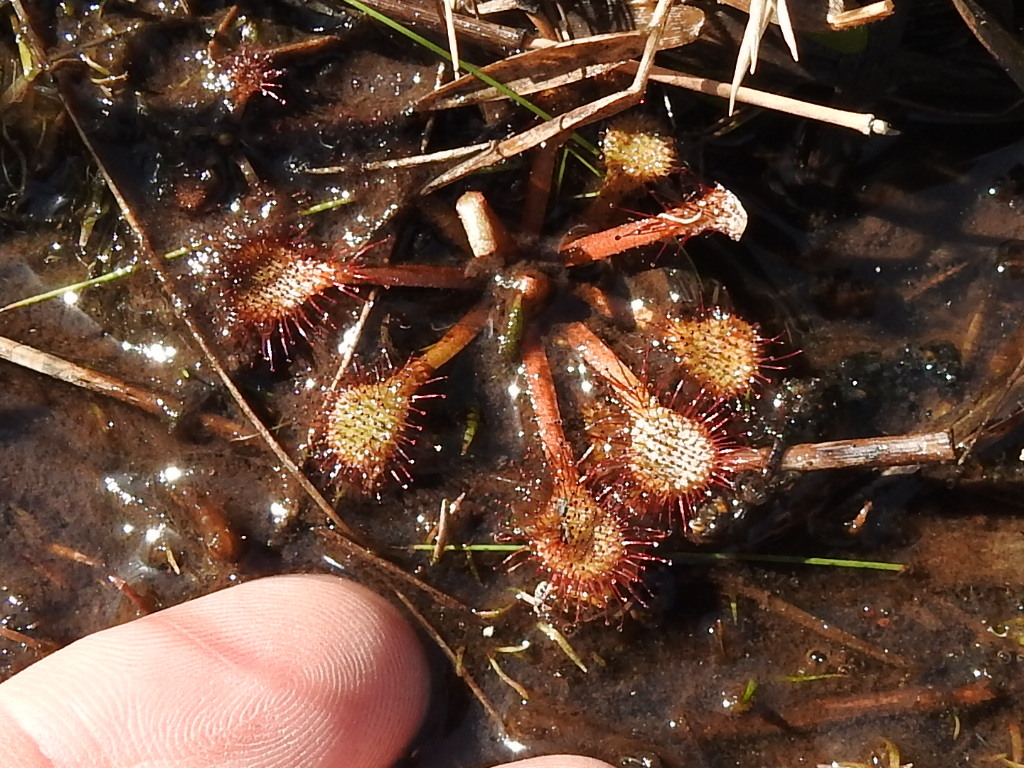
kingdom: Plantae
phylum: Tracheophyta
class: Magnoliopsida
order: Caryophyllales
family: Droseraceae
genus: Drosera
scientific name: Drosera capillaris
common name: Pink sundew
